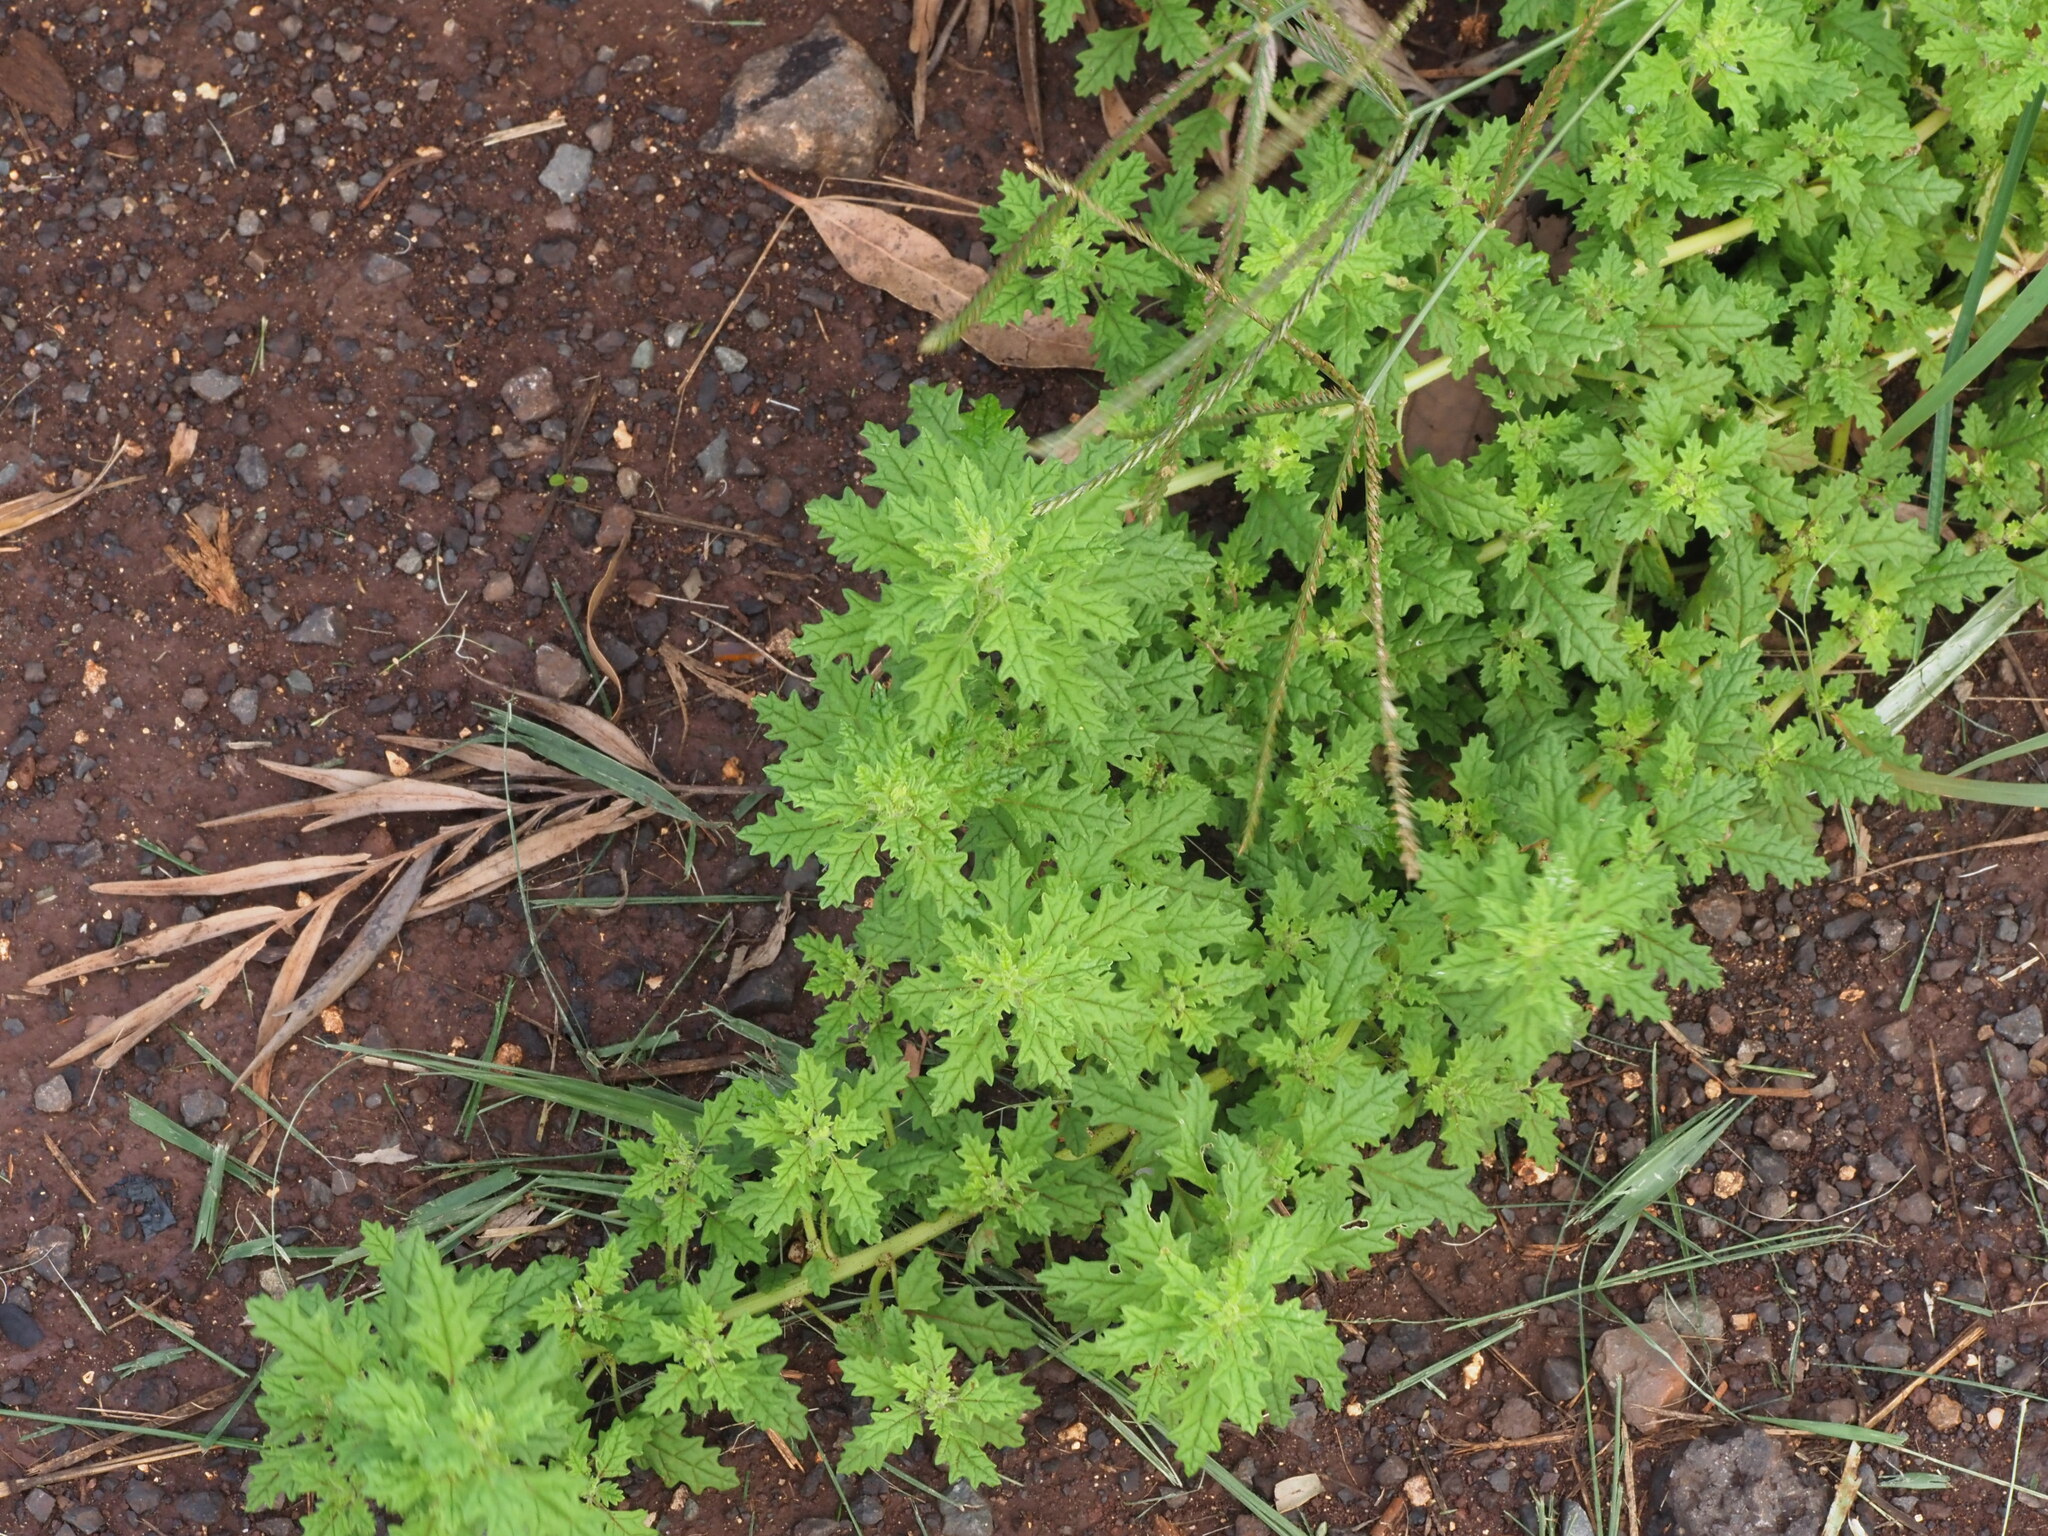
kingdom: Plantae
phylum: Tracheophyta
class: Magnoliopsida
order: Caryophyllales
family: Amaranthaceae
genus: Dysphania
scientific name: Dysphania carinata
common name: Keeled wormseed
